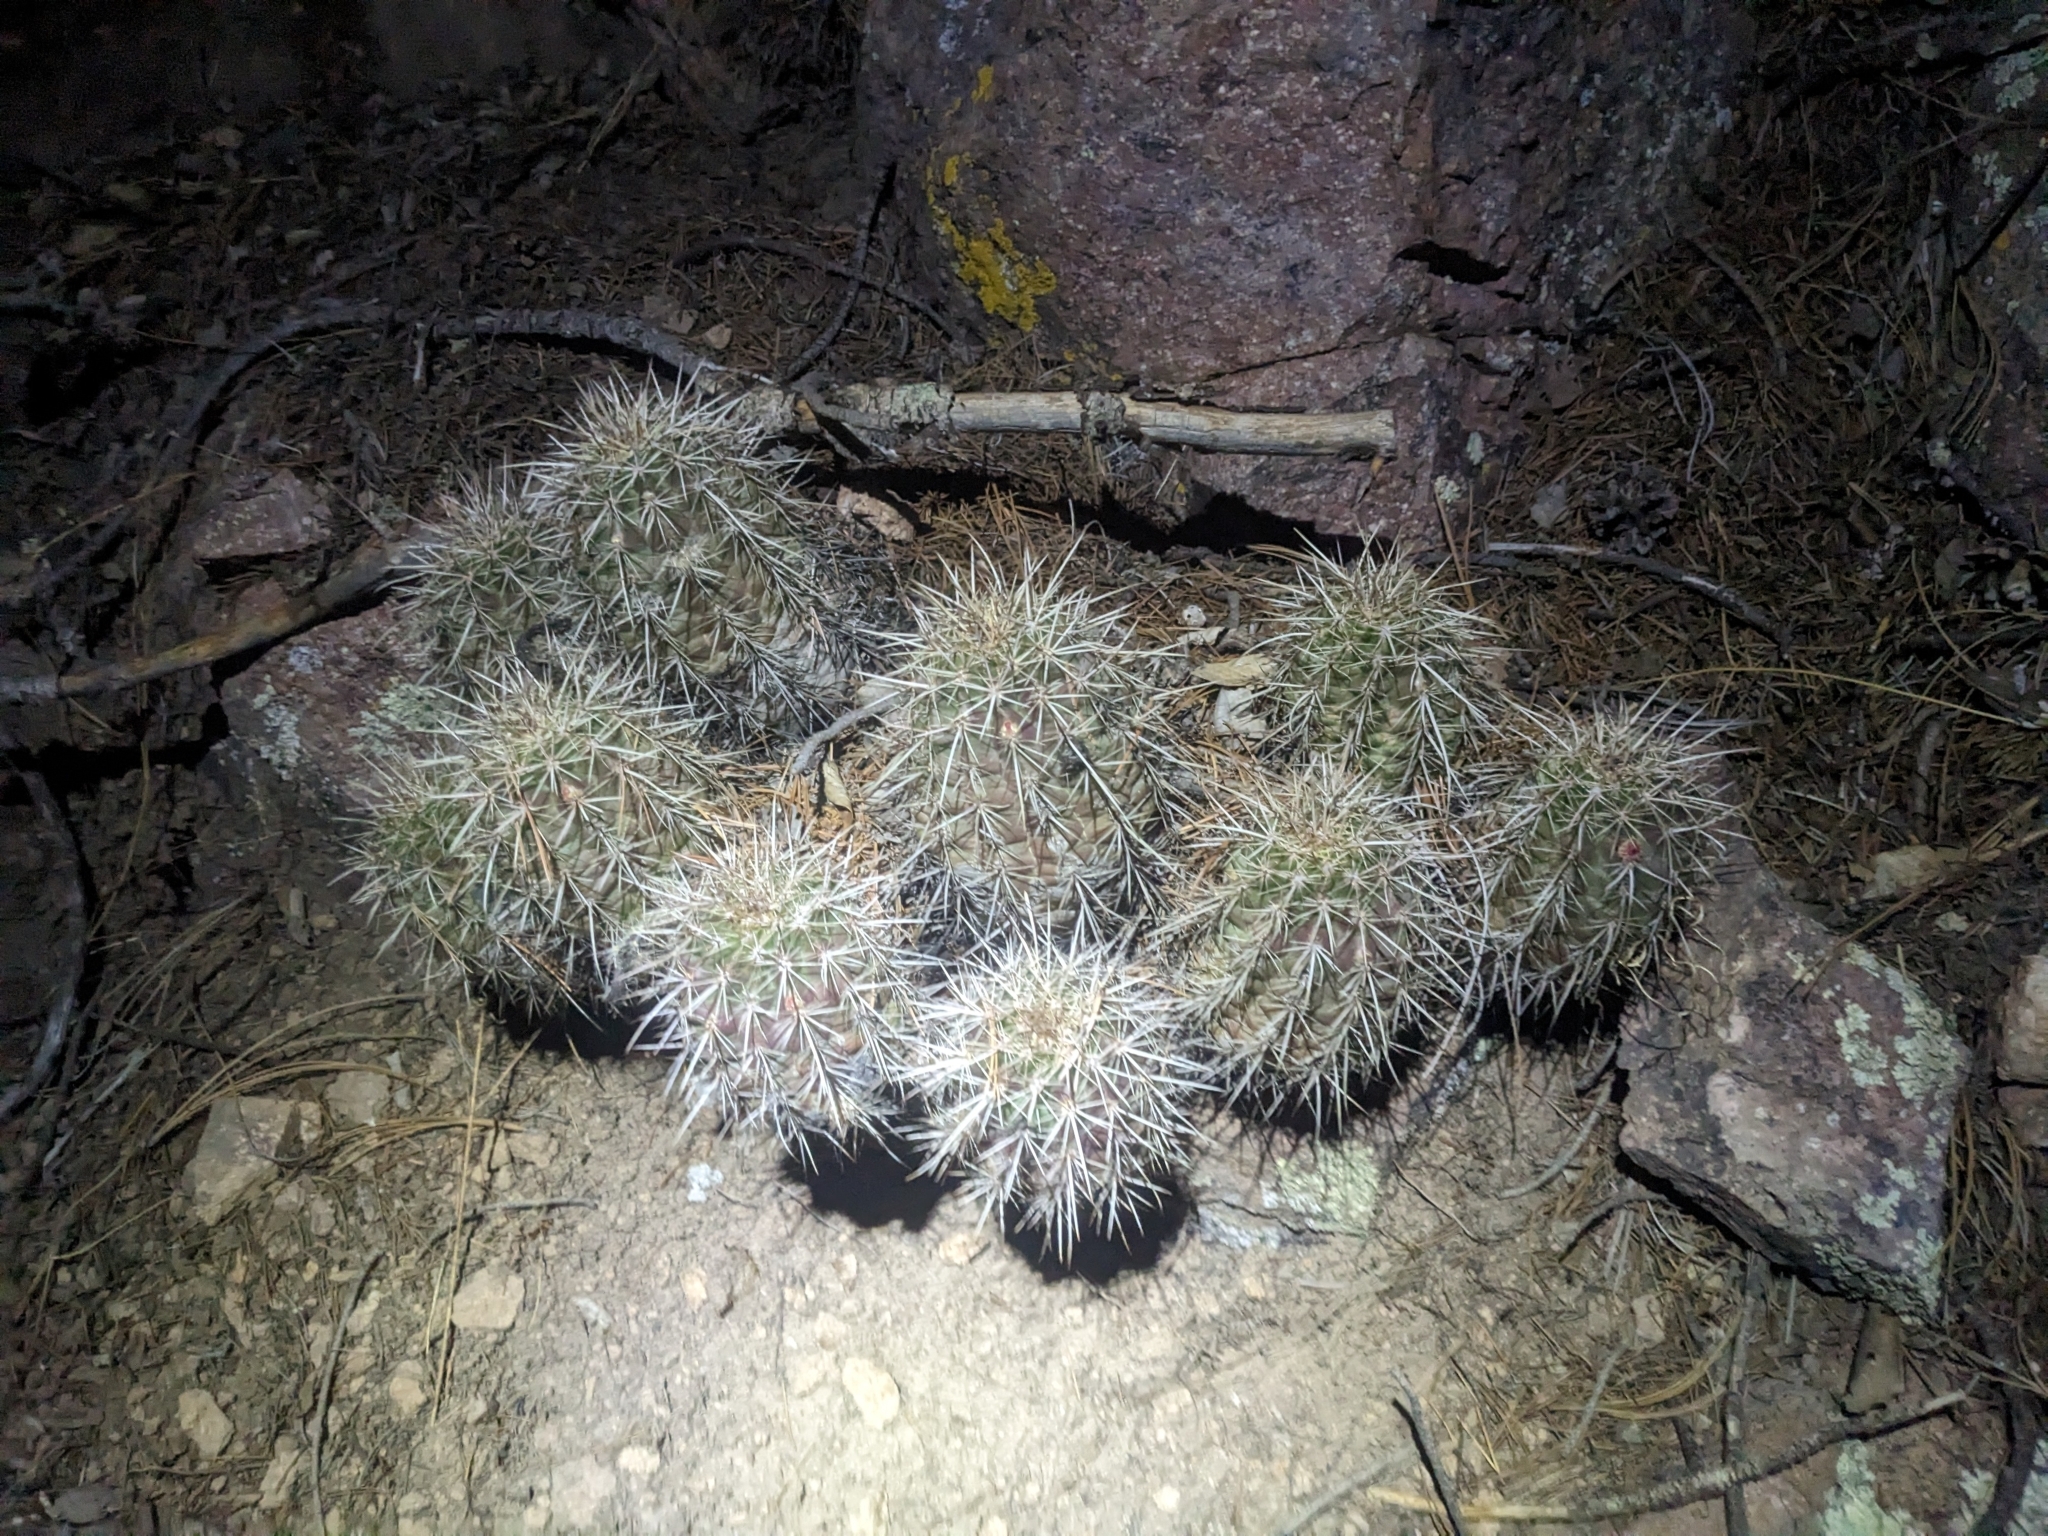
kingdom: Plantae
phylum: Tracheophyta
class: Magnoliopsida
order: Caryophyllales
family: Cactaceae
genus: Echinocereus
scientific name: Echinocereus arizonicus
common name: Arizona hedgehog cactus
